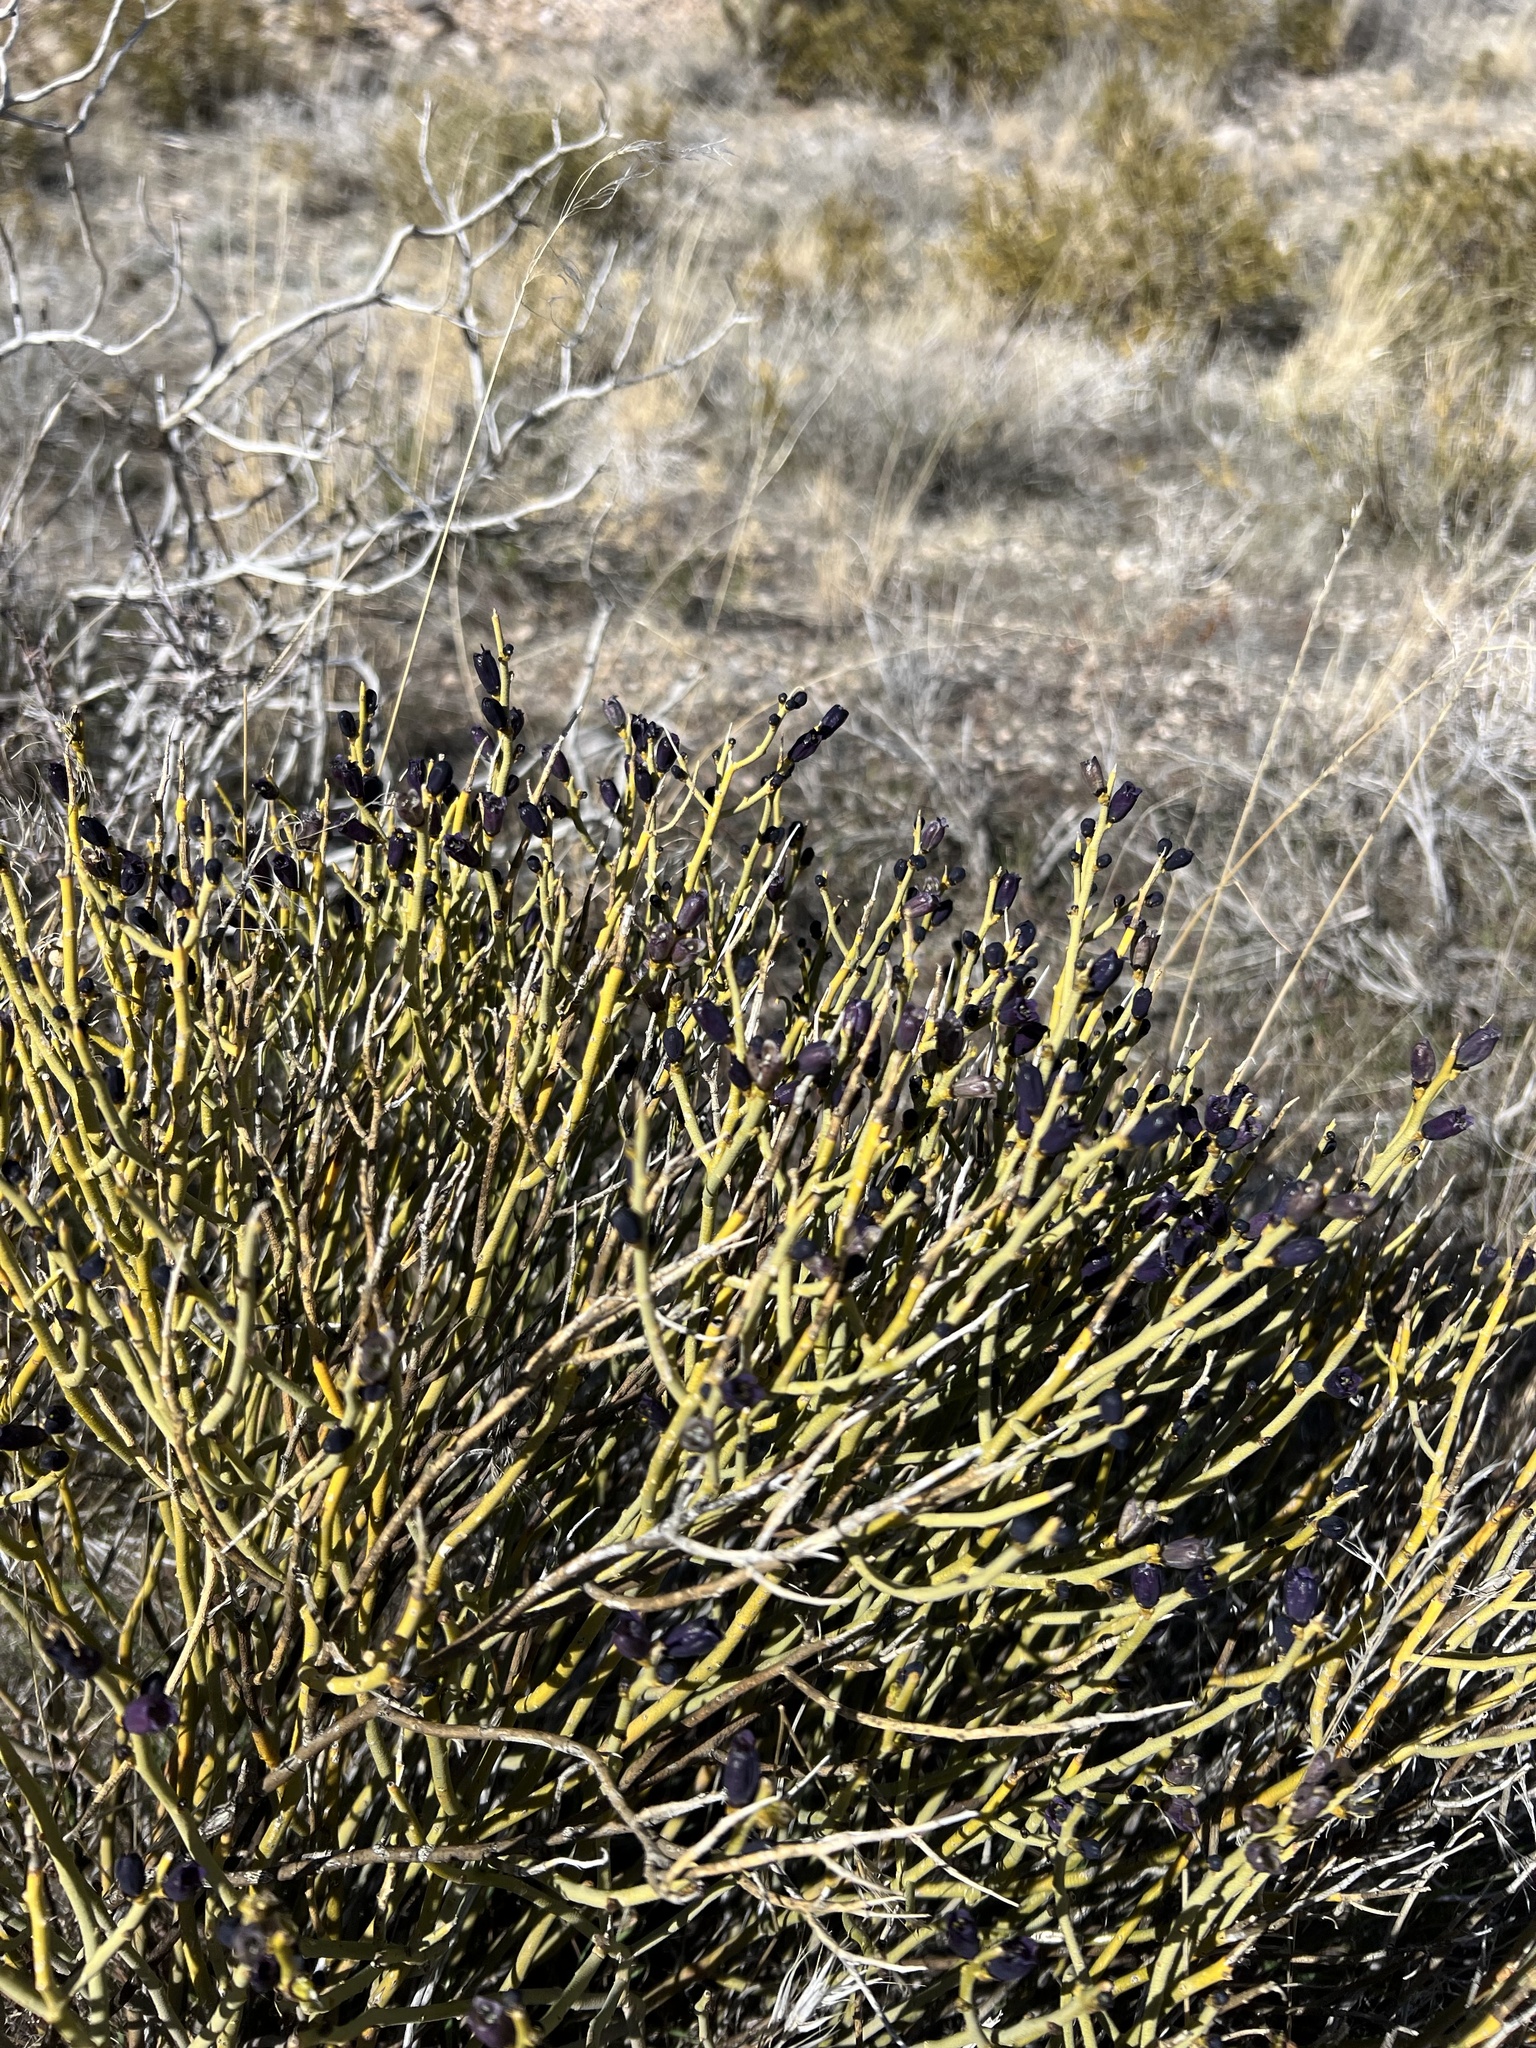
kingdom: Plantae
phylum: Tracheophyta
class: Magnoliopsida
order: Sapindales
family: Rutaceae
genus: Thamnosma
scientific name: Thamnosma montana
